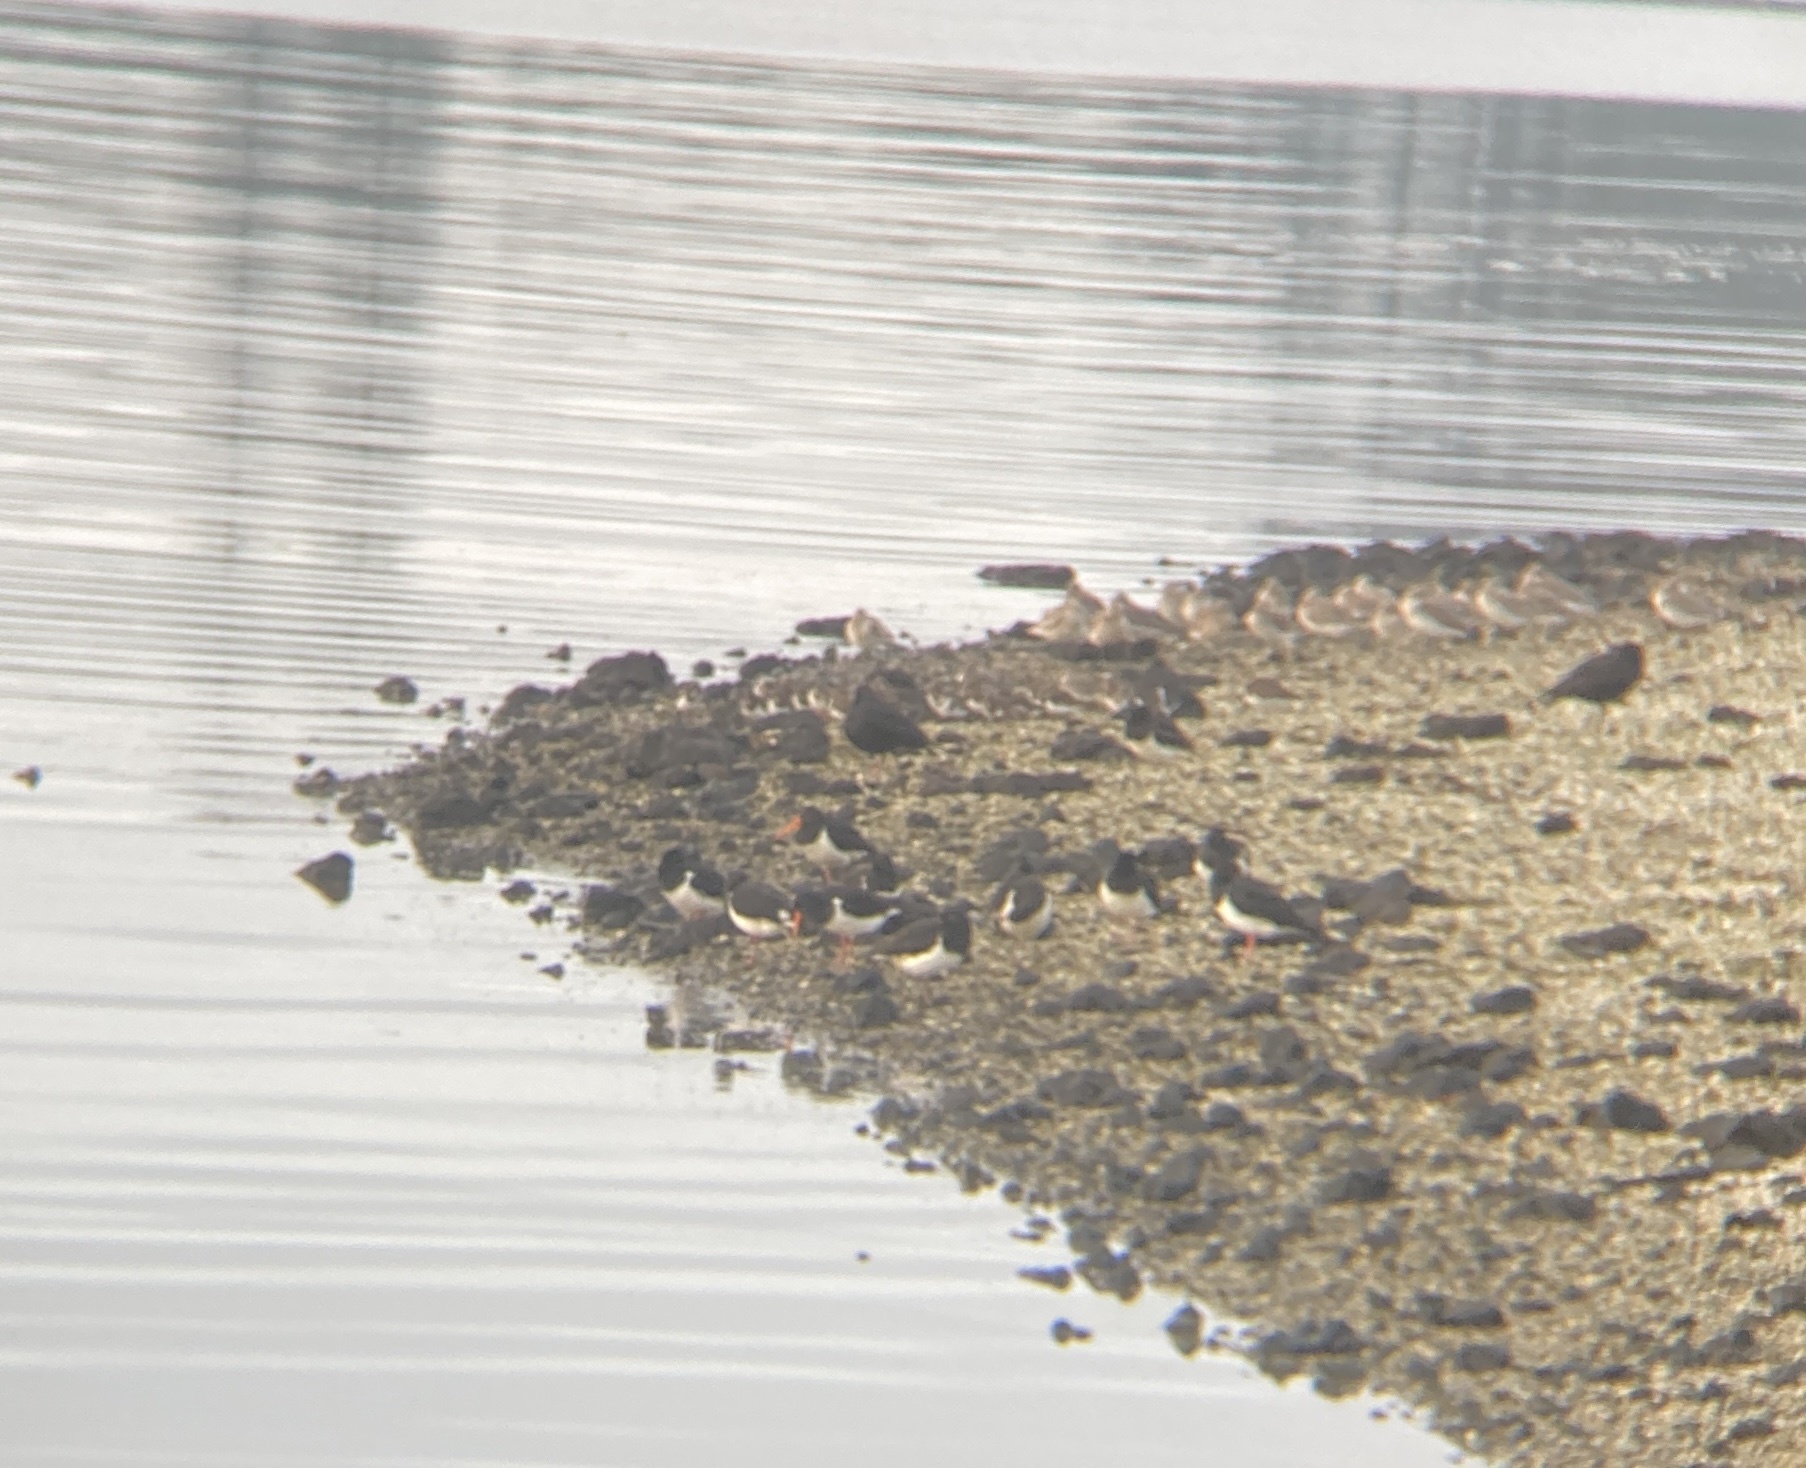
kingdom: Animalia
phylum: Chordata
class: Aves
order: Charadriiformes
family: Scolopacidae
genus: Arenaria
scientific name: Arenaria interpres
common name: Ruddy turnstone
